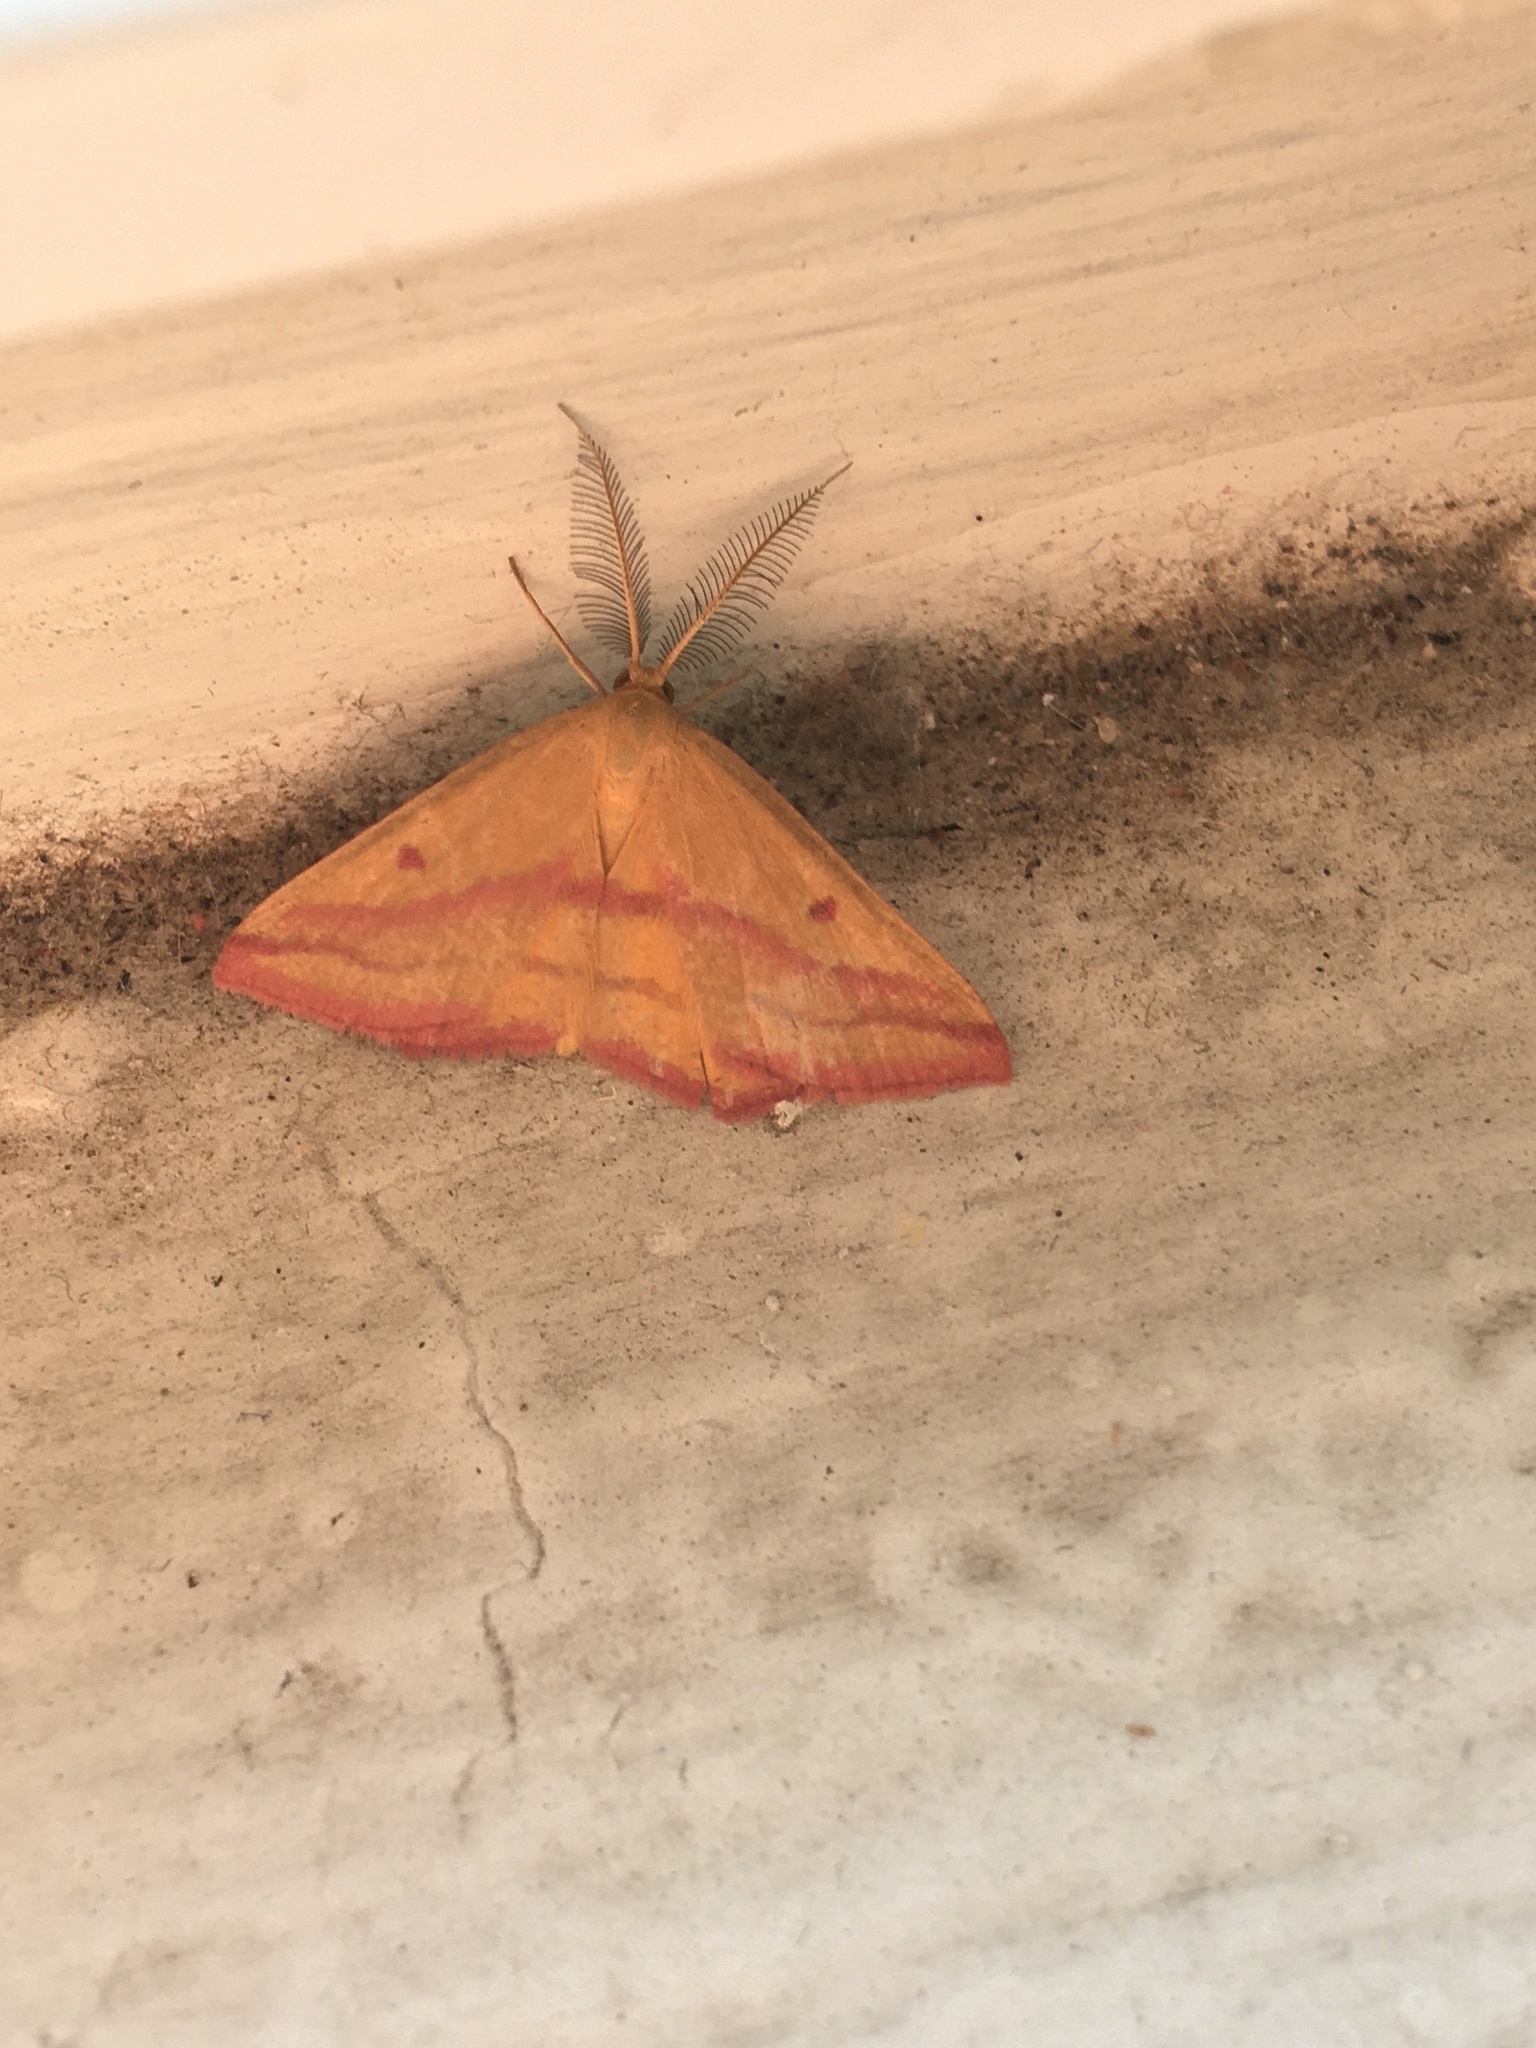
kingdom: Animalia
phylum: Arthropoda
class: Insecta
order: Lepidoptera
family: Geometridae
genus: Haematopis
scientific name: Haematopis grataria
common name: Chickweed geometer
